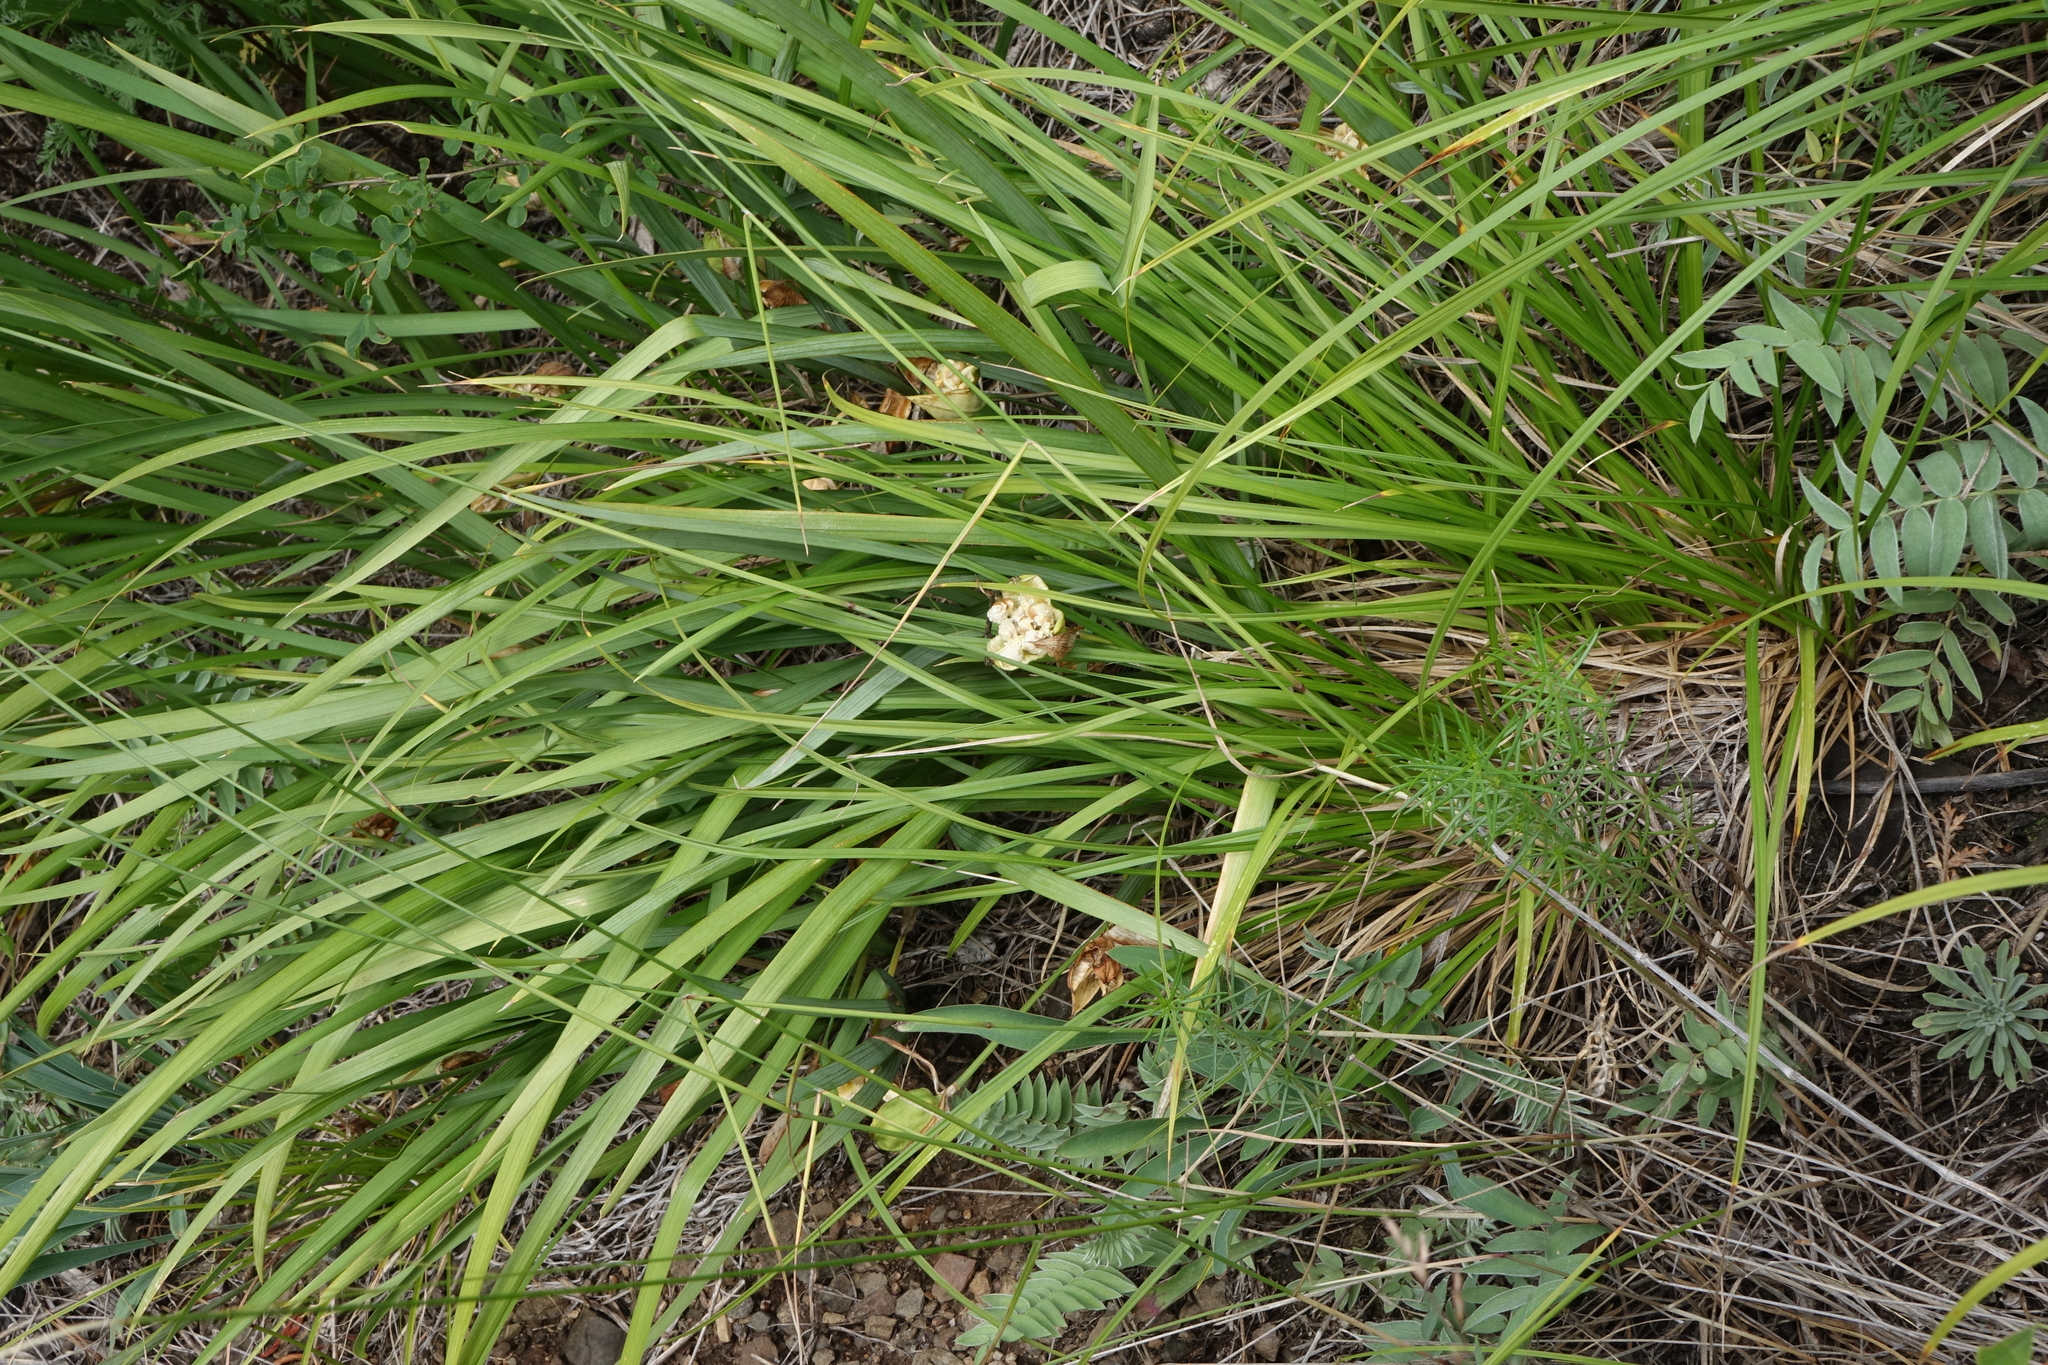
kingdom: Plantae
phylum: Tracheophyta
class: Liliopsida
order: Asparagales
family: Iridaceae
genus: Iris
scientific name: Iris ruthenica
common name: Purple-bract iris
